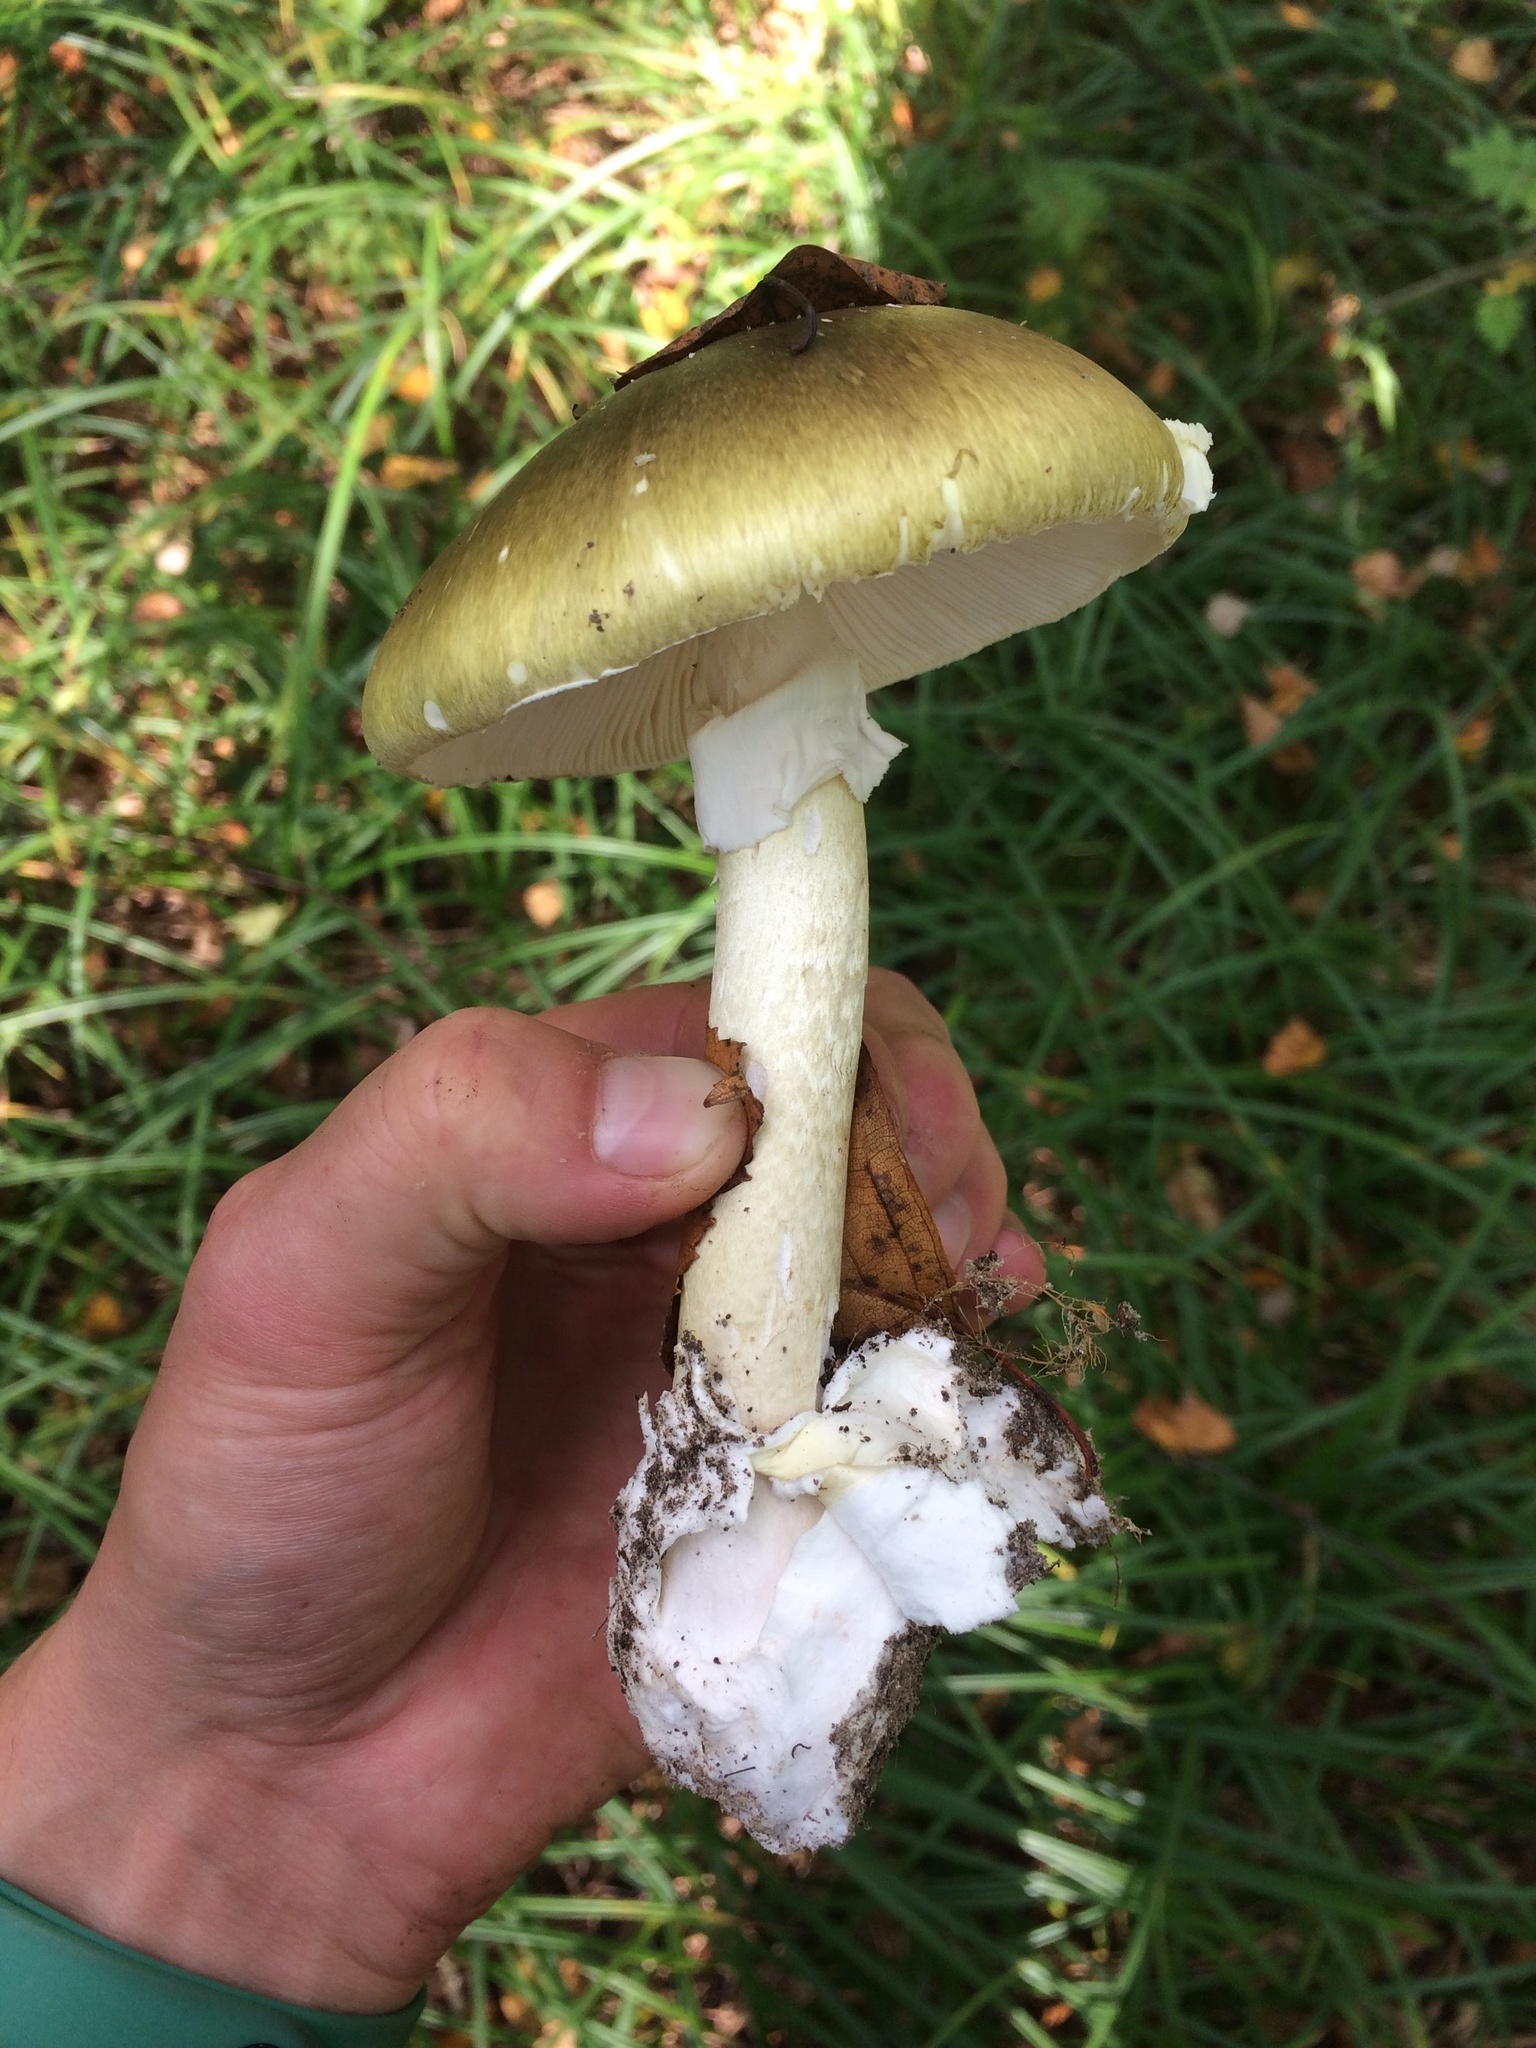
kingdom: Fungi
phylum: Basidiomycota
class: Agaricomycetes
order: Agaricales
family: Amanitaceae
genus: Amanita
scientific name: Amanita phalloides
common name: Death cap
